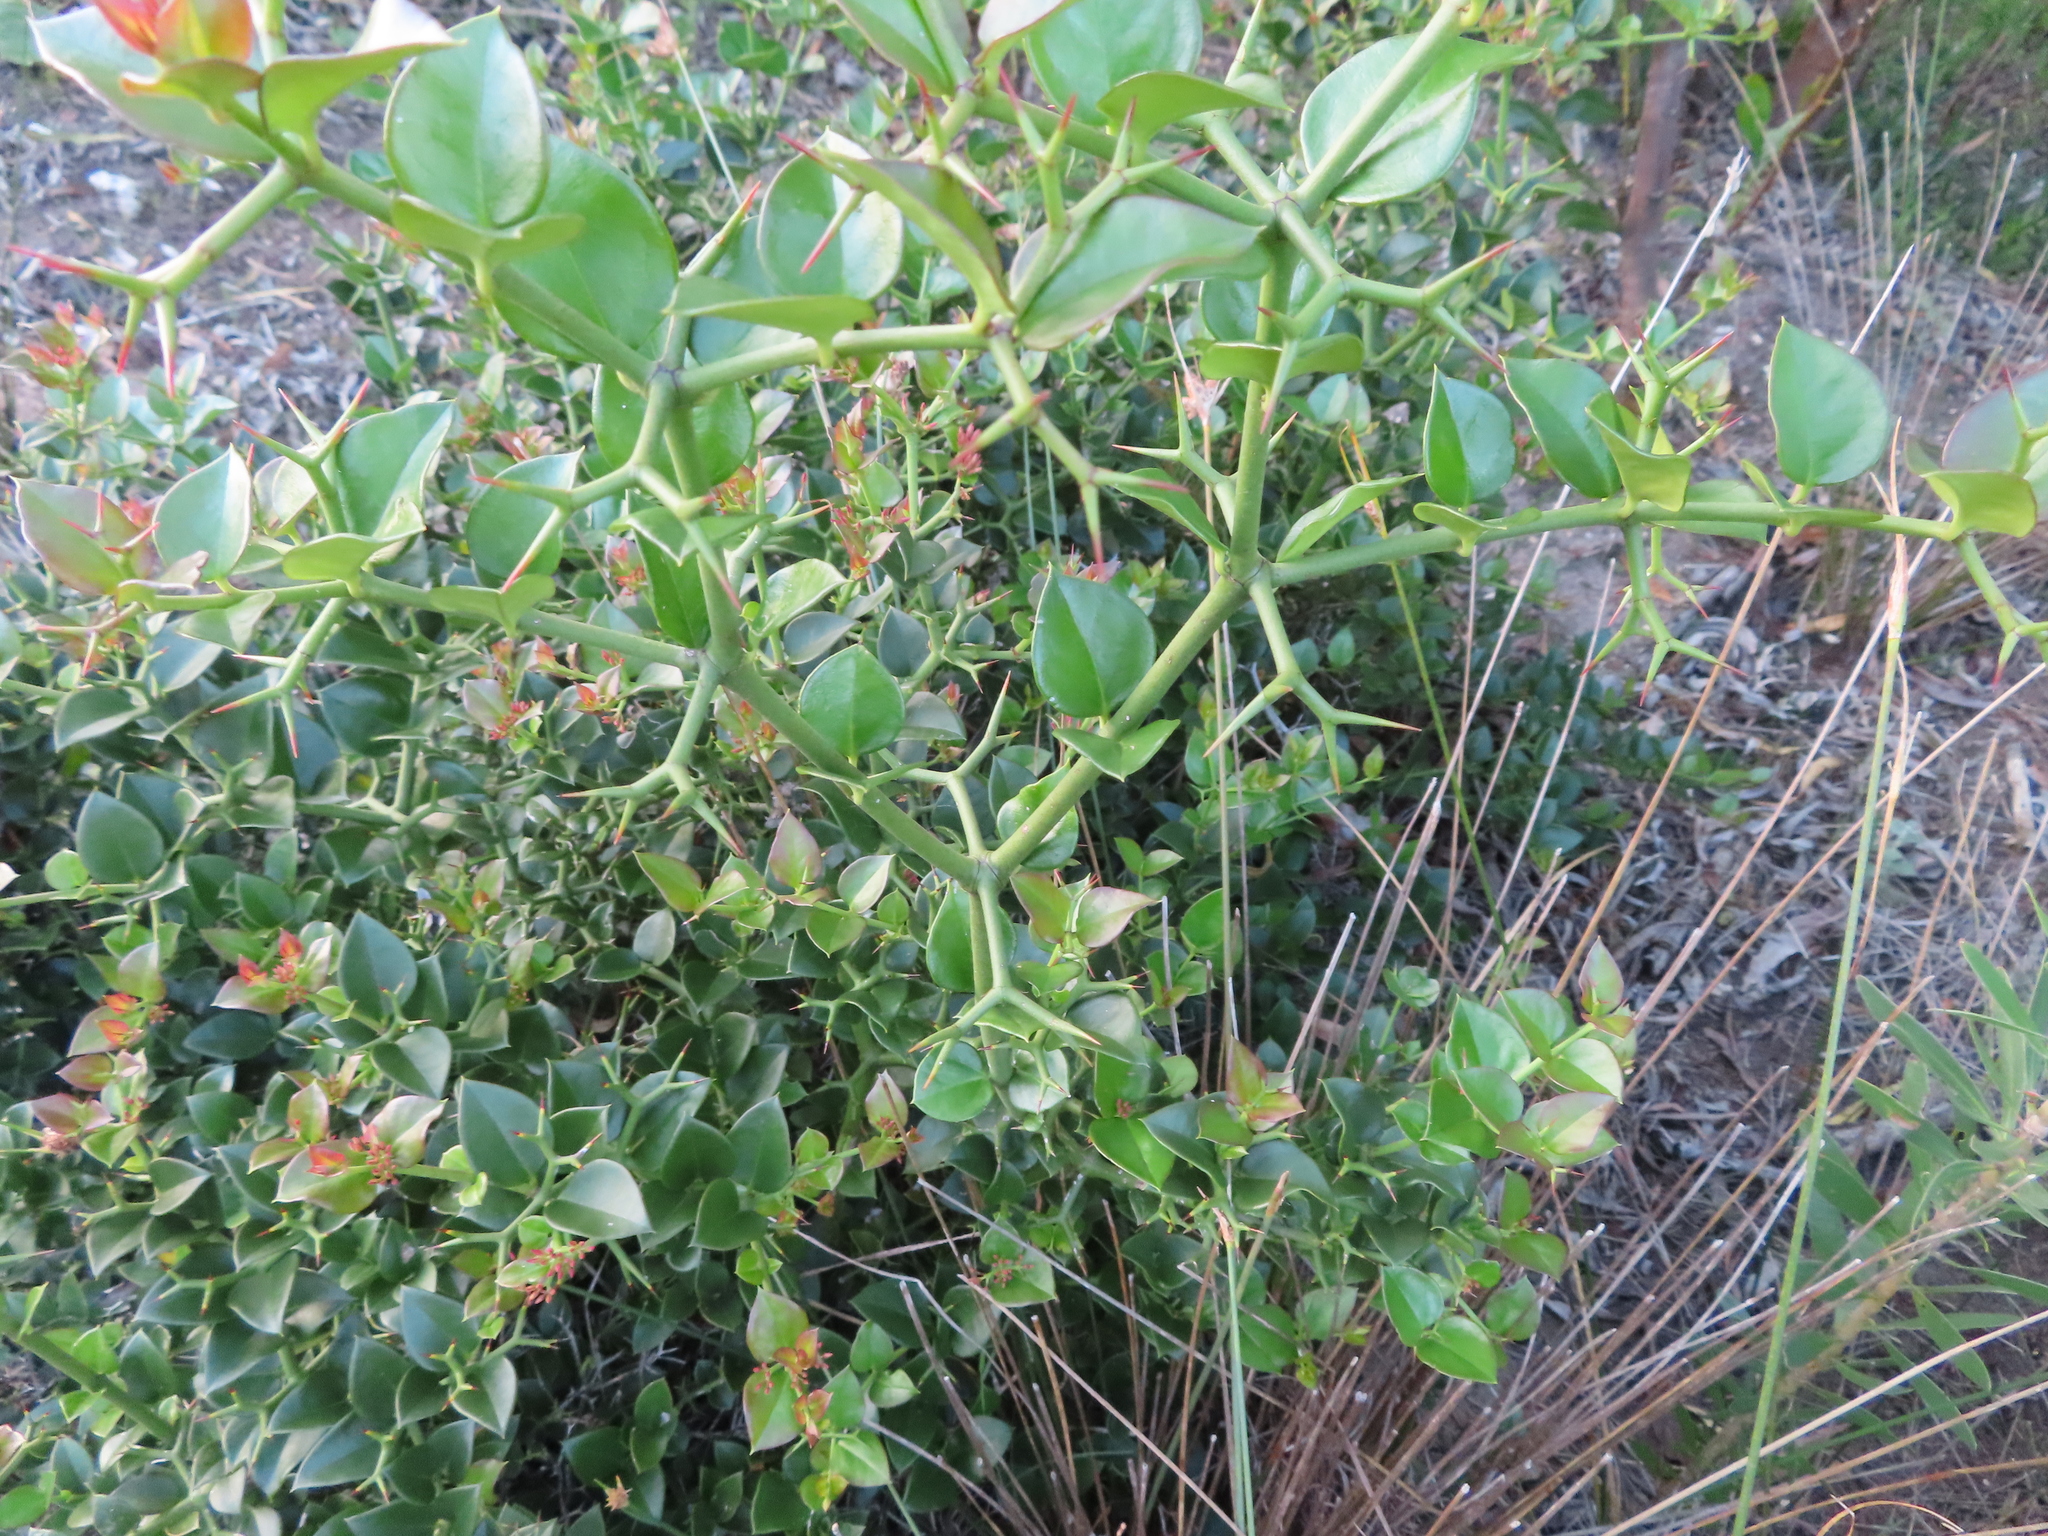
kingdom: Plantae
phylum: Tracheophyta
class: Magnoliopsida
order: Gentianales
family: Apocynaceae
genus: Carissa
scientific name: Carissa bispinosa
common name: Forest num-num
